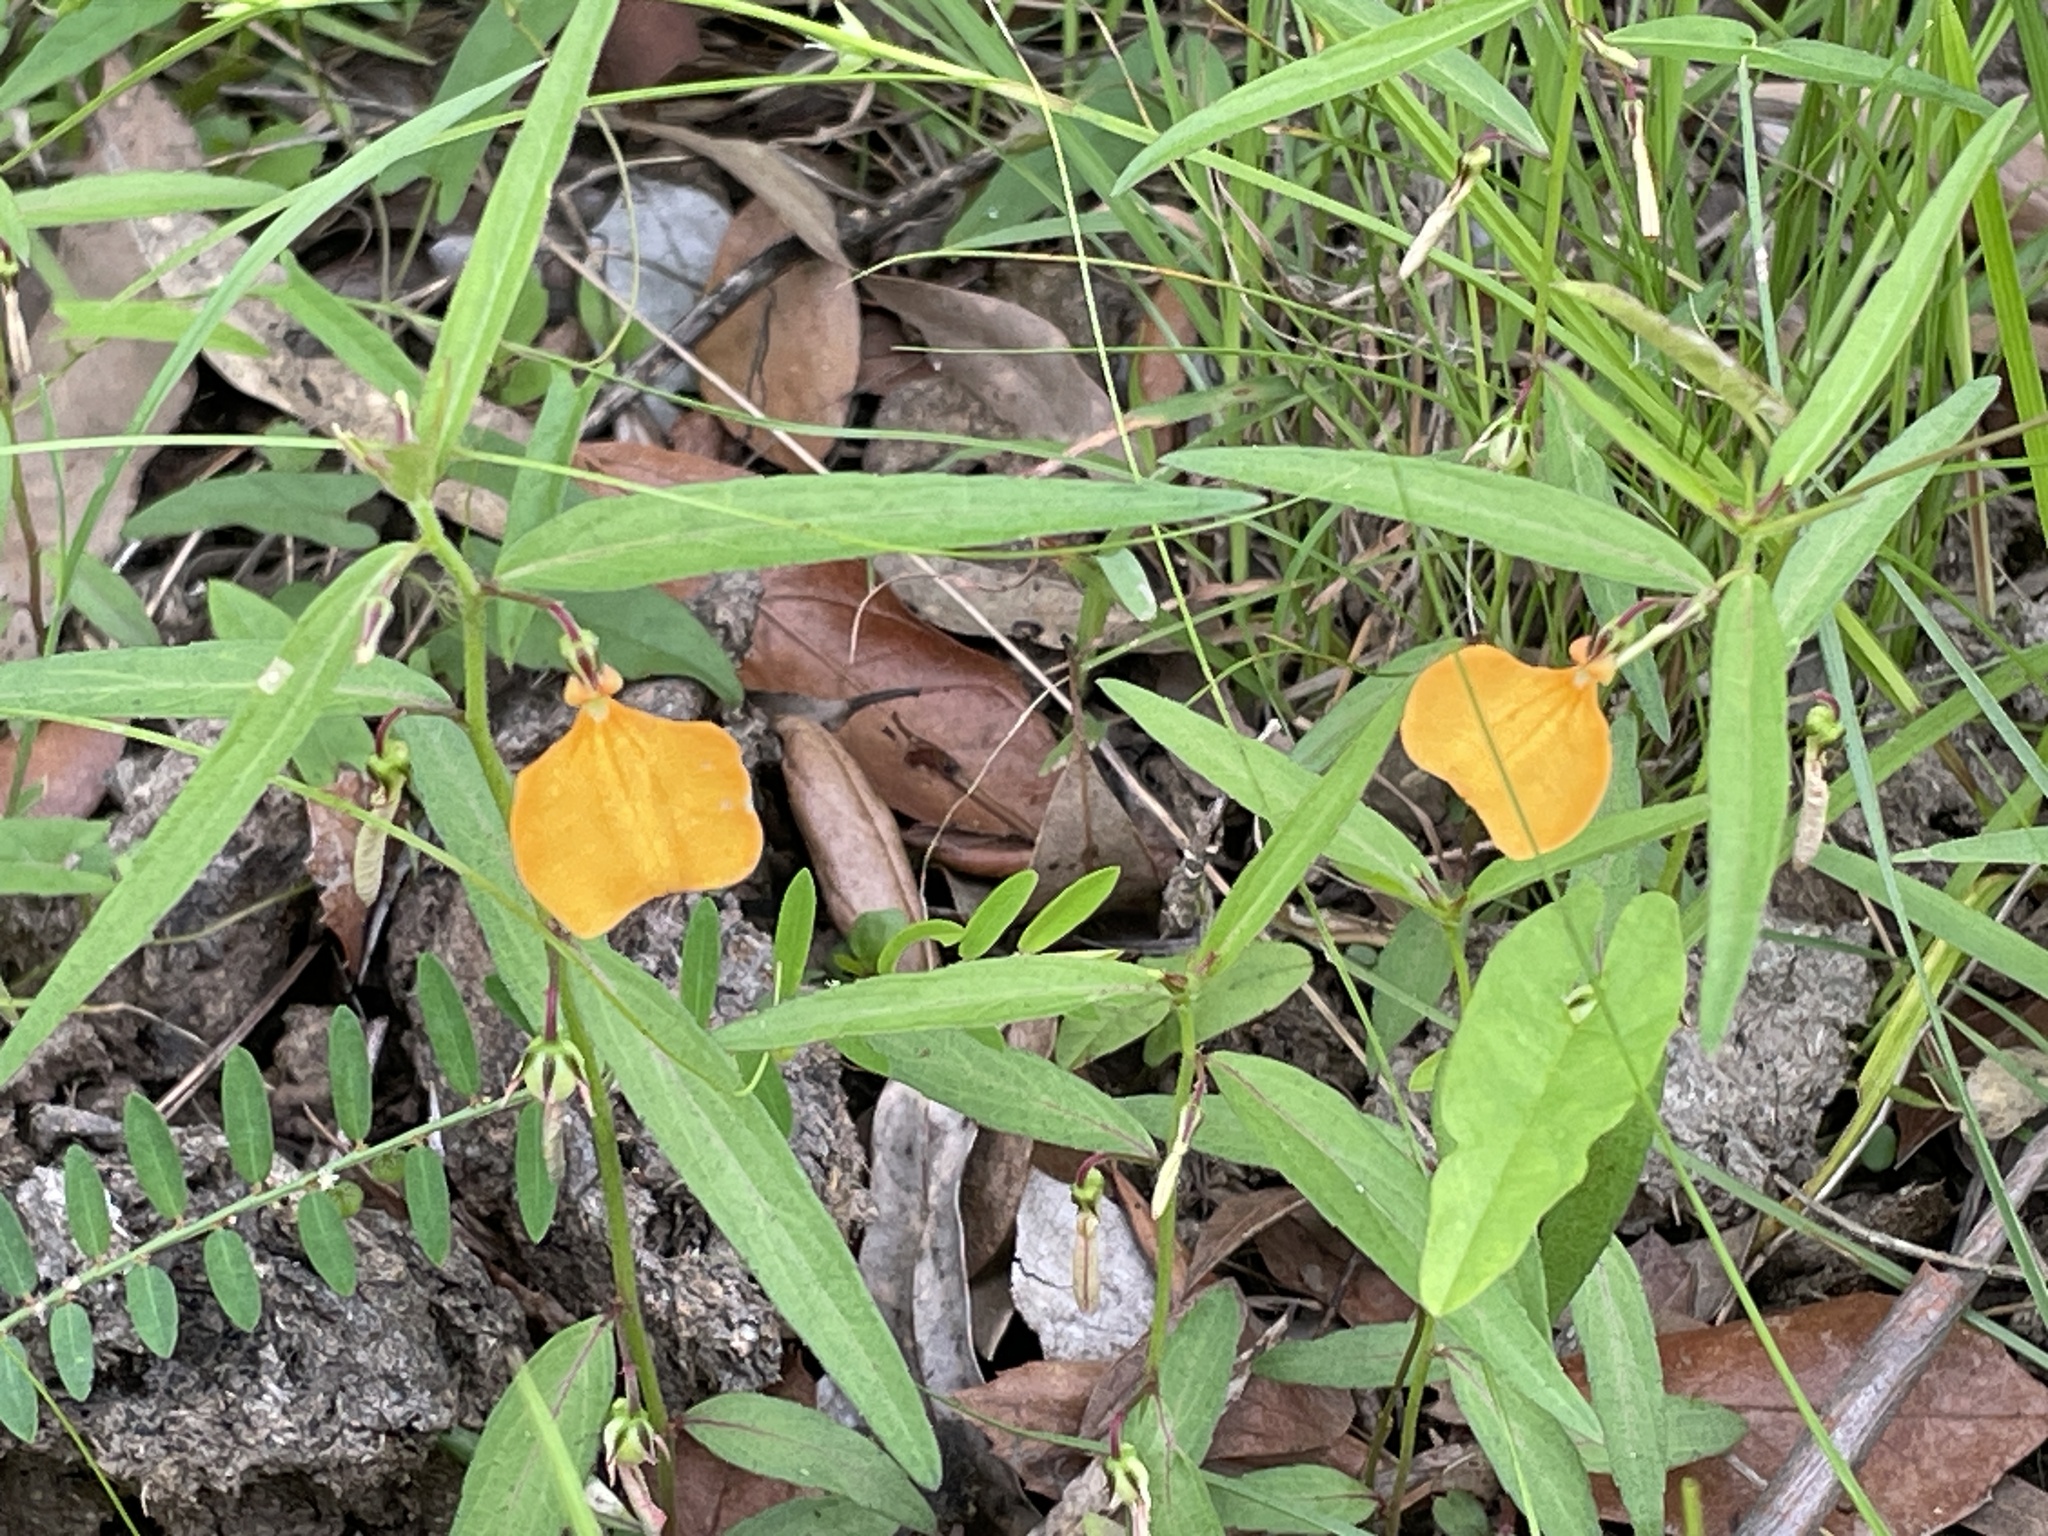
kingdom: Plantae
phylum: Tracheophyta
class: Magnoliopsida
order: Malpighiales
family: Violaceae
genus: Pigea
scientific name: Pigea stellarioides
